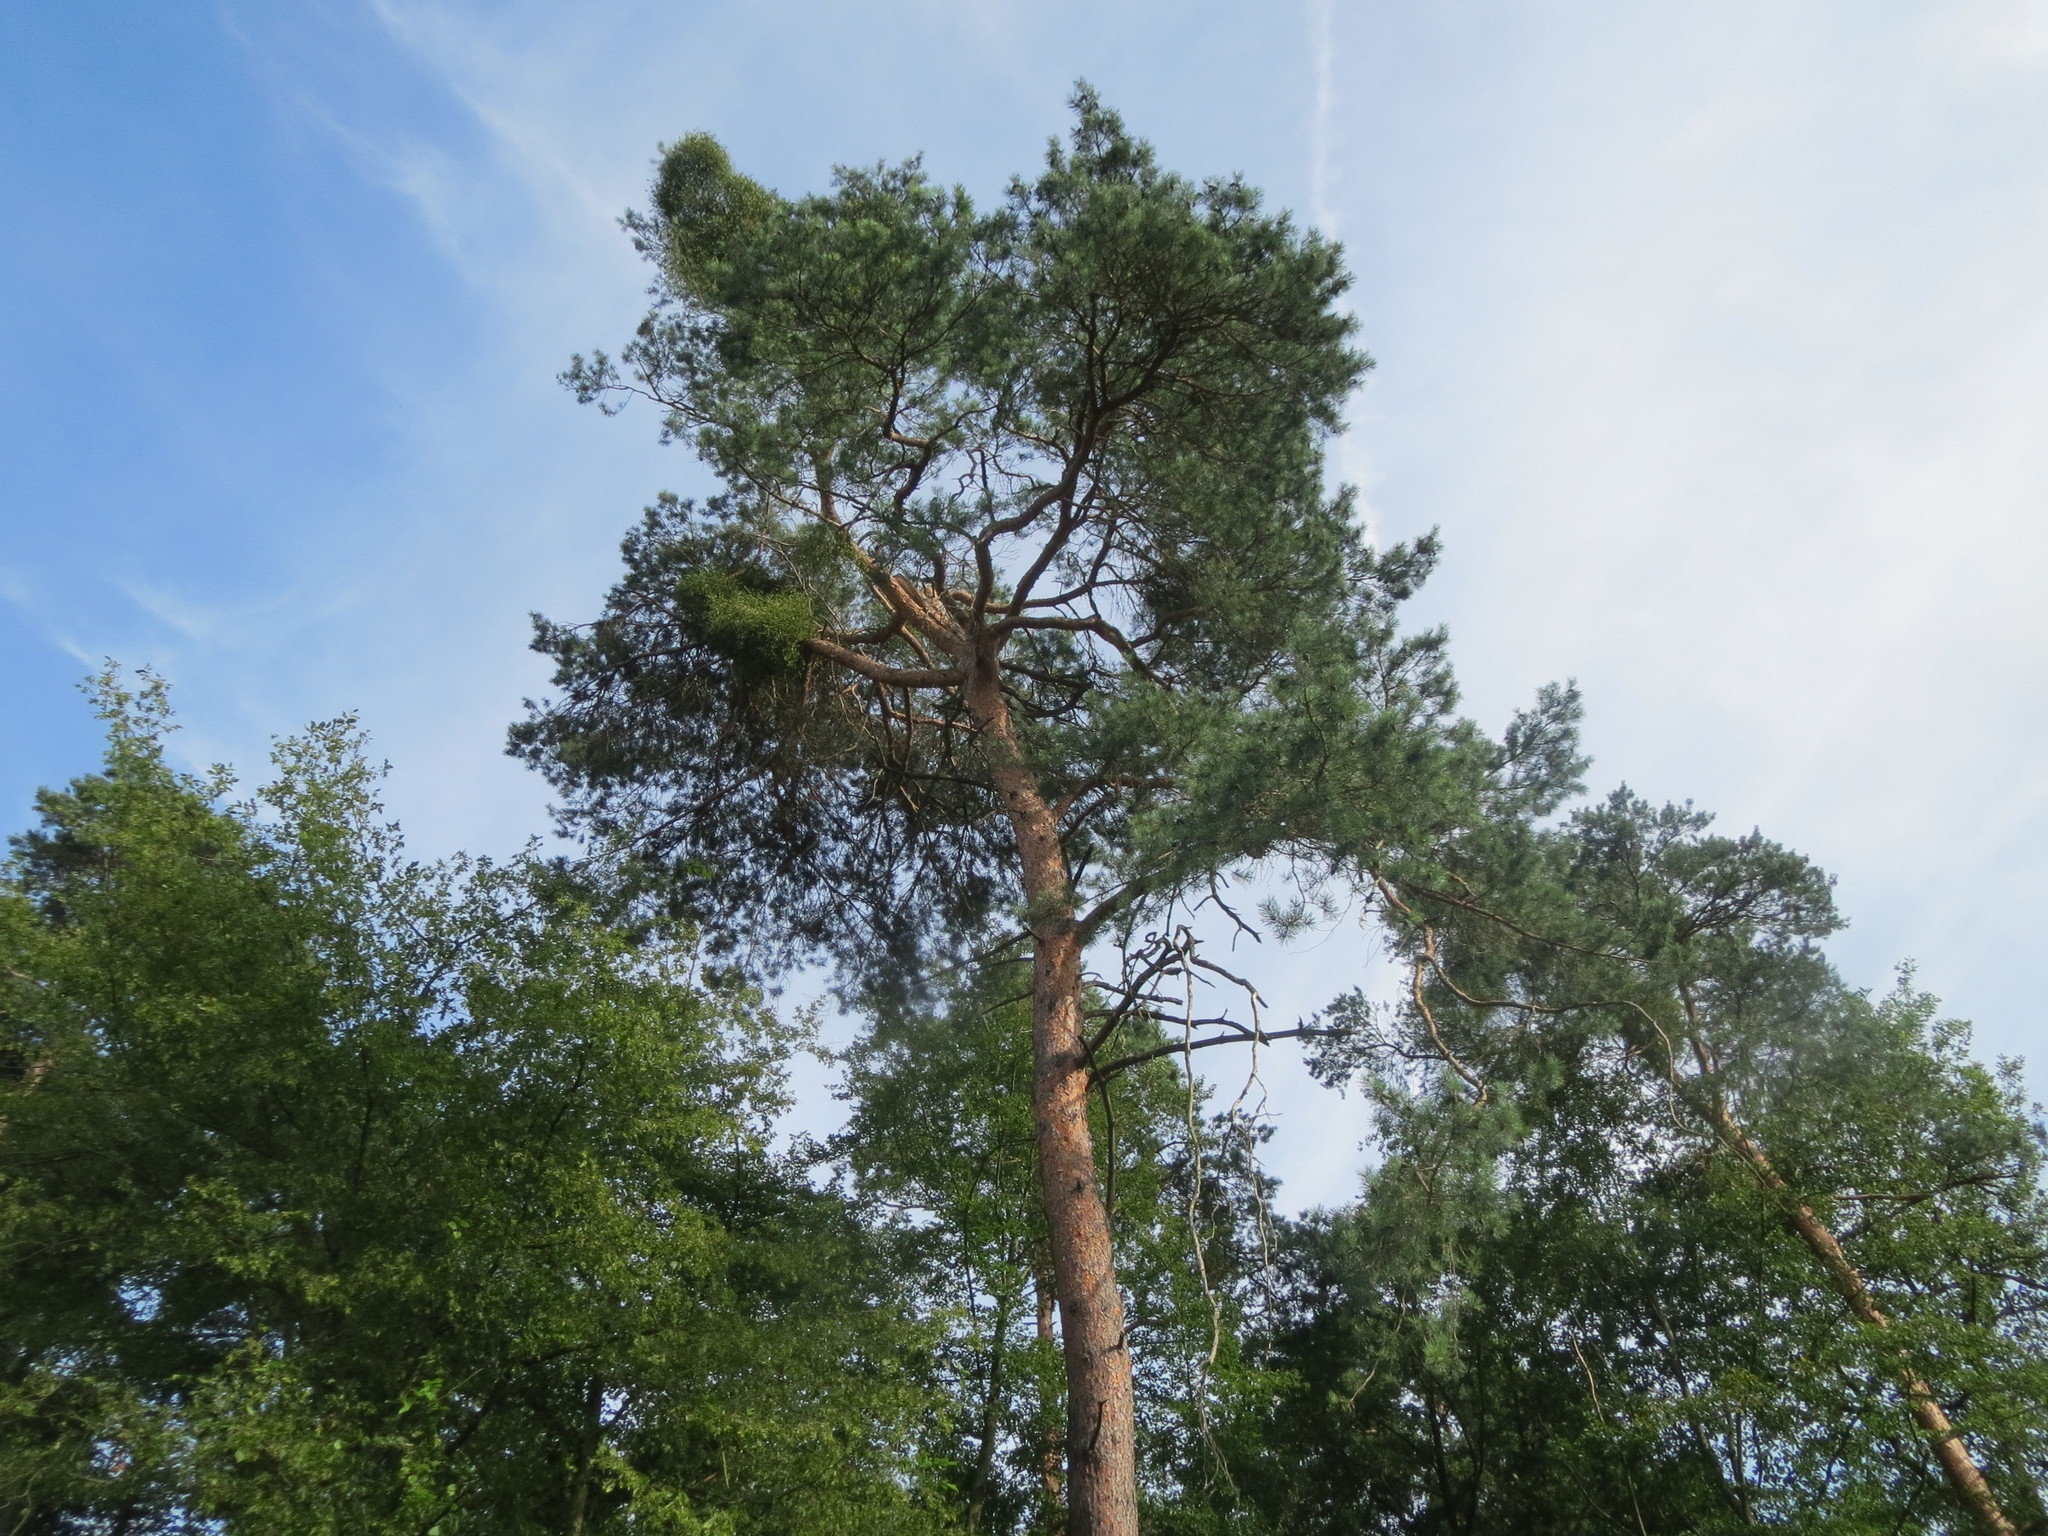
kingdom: Plantae
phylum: Tracheophyta
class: Pinopsida
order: Pinales
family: Pinaceae
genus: Pinus
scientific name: Pinus sylvestris
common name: Scots pine
